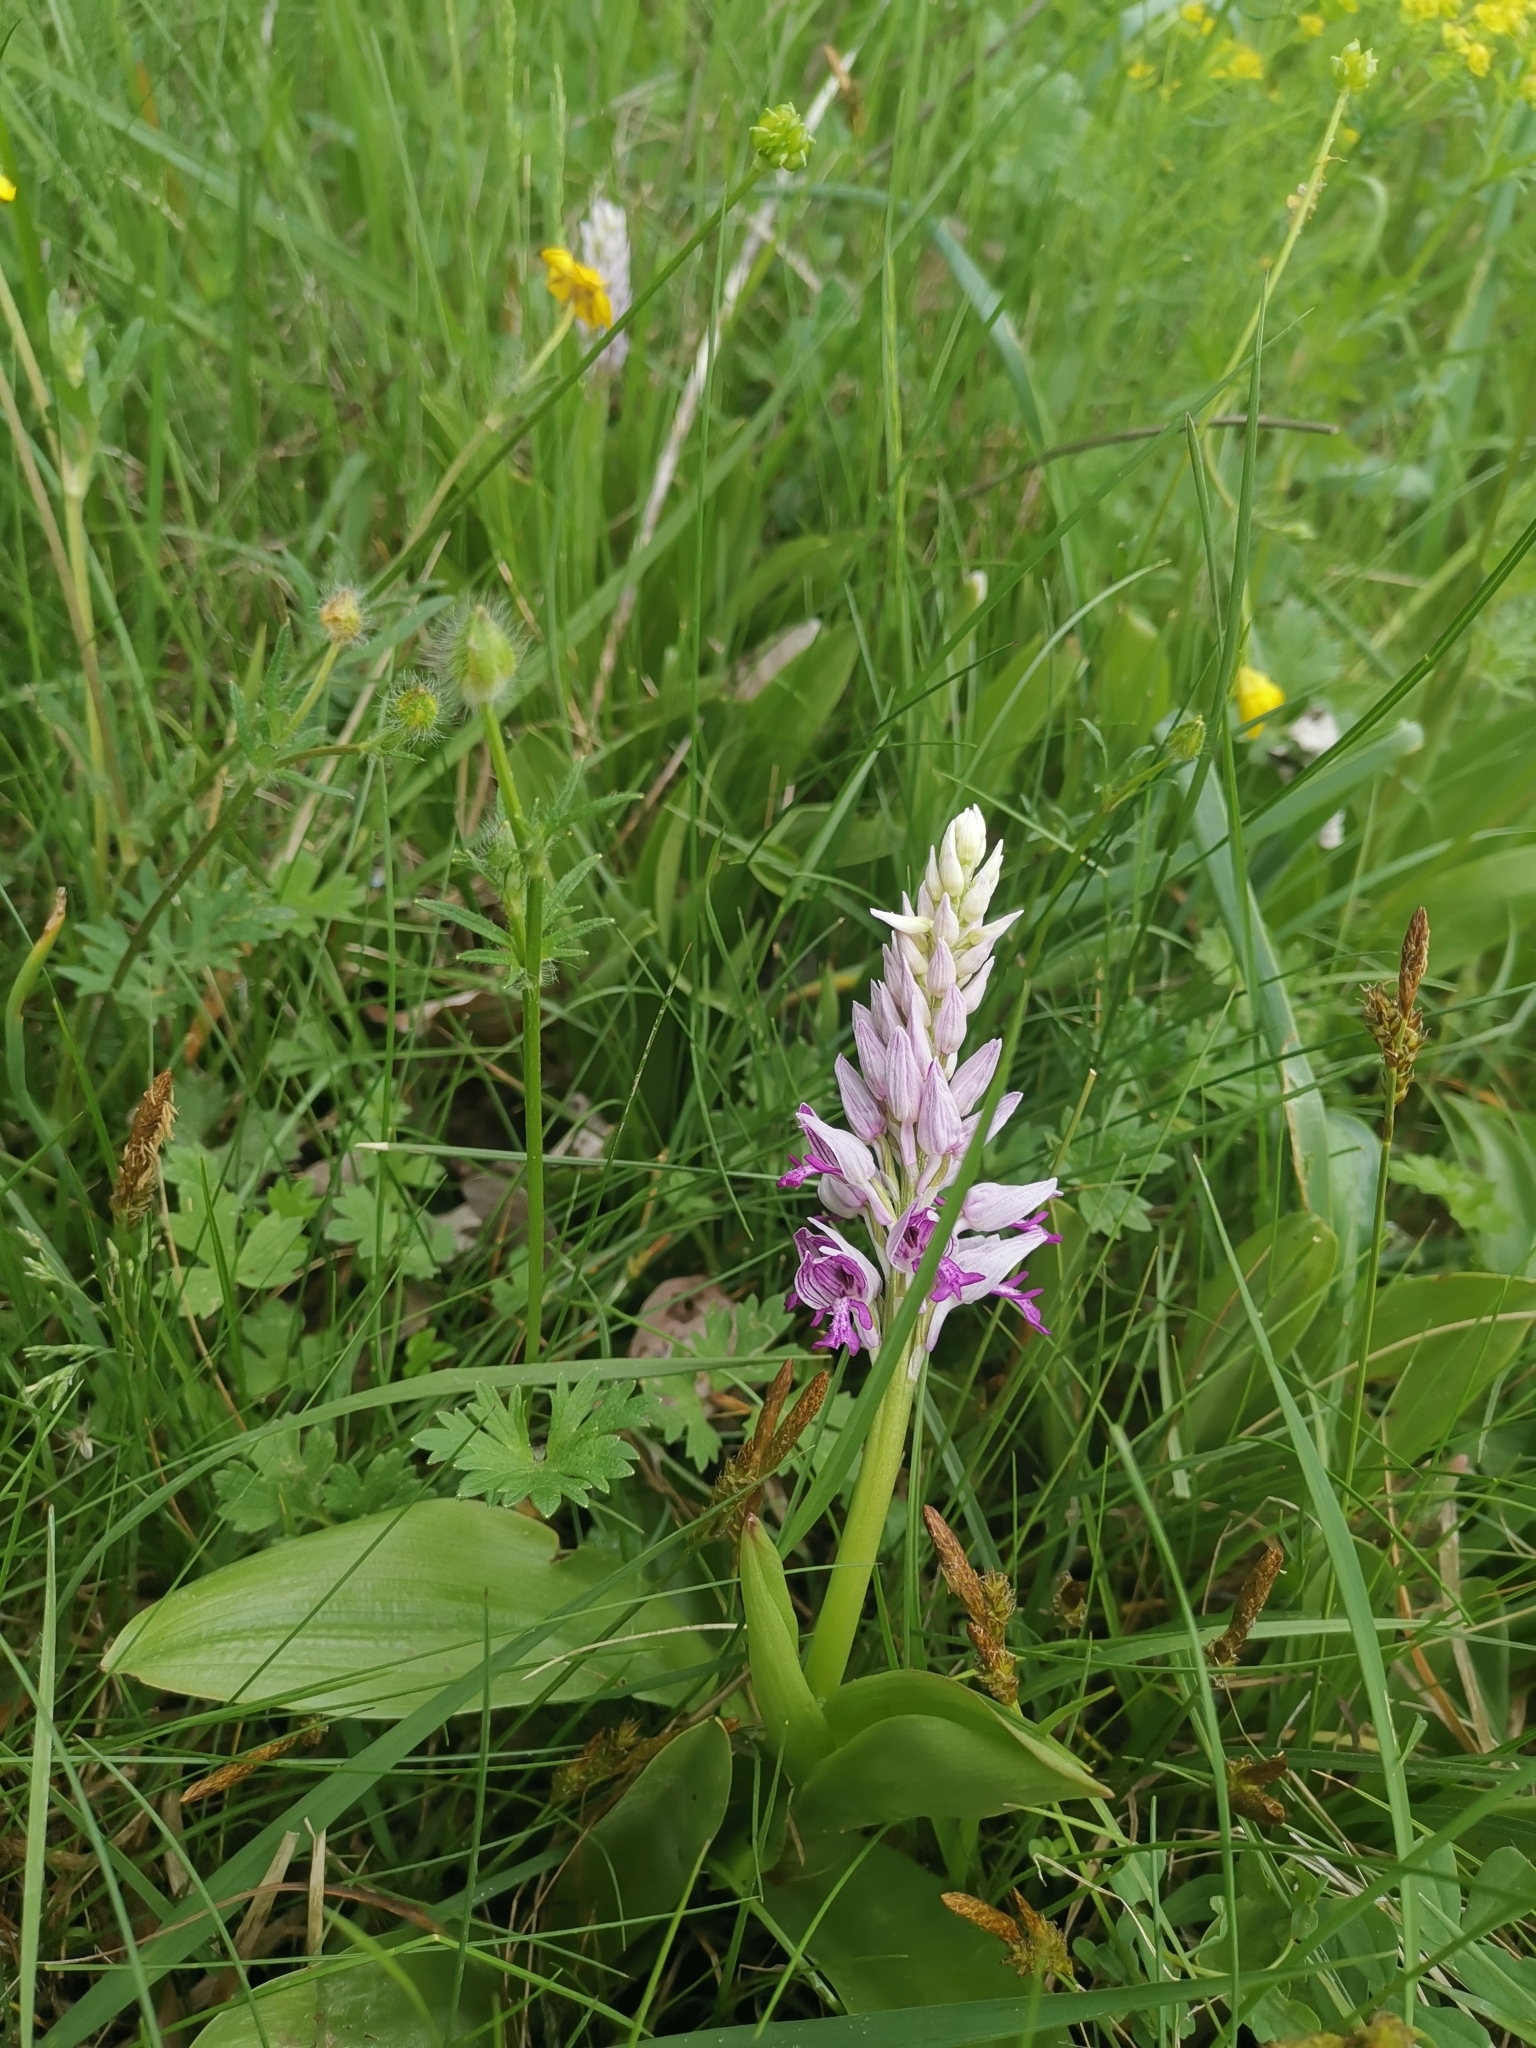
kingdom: Plantae
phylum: Tracheophyta
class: Liliopsida
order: Asparagales
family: Orchidaceae
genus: Orchis
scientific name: Orchis militaris
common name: Military orchid
